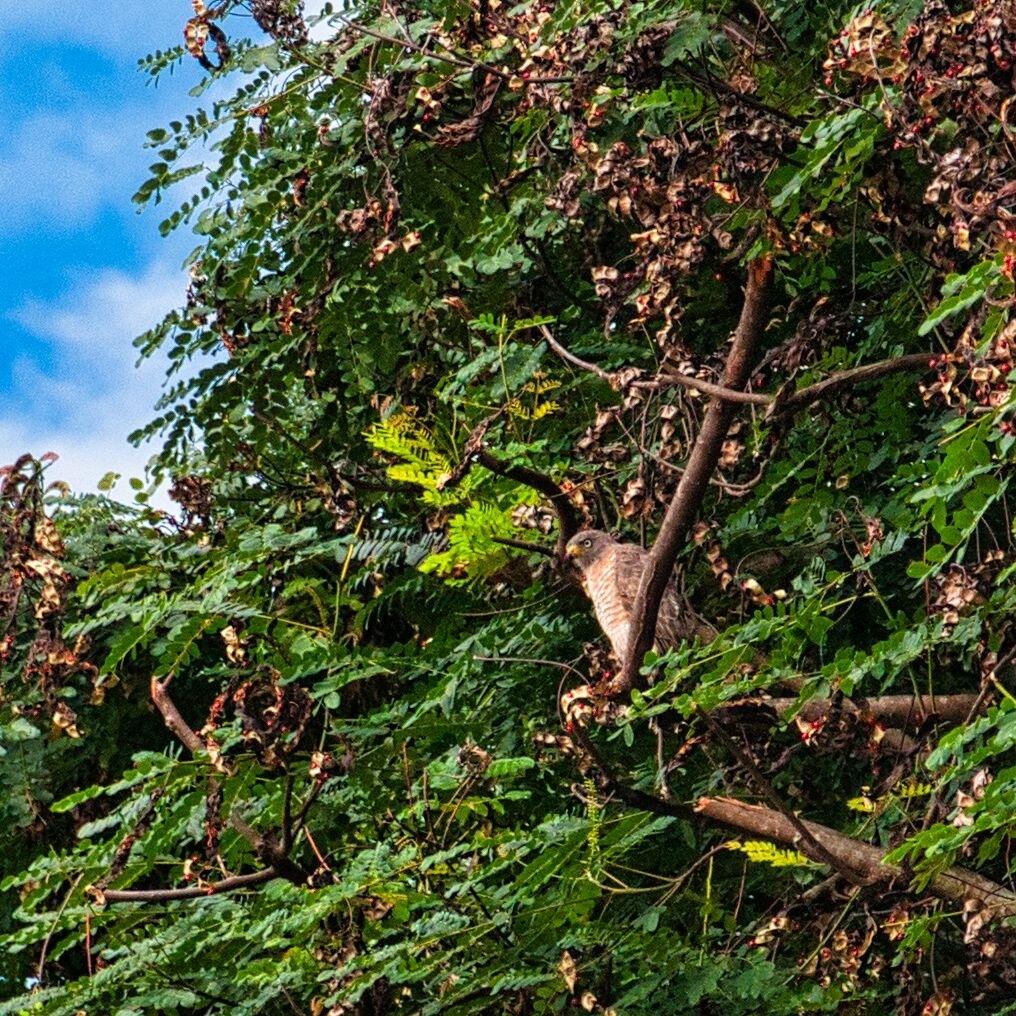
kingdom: Animalia
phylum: Chordata
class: Aves
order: Accipitriformes
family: Accipitridae
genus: Rupornis
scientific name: Rupornis magnirostris
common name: Roadside hawk
